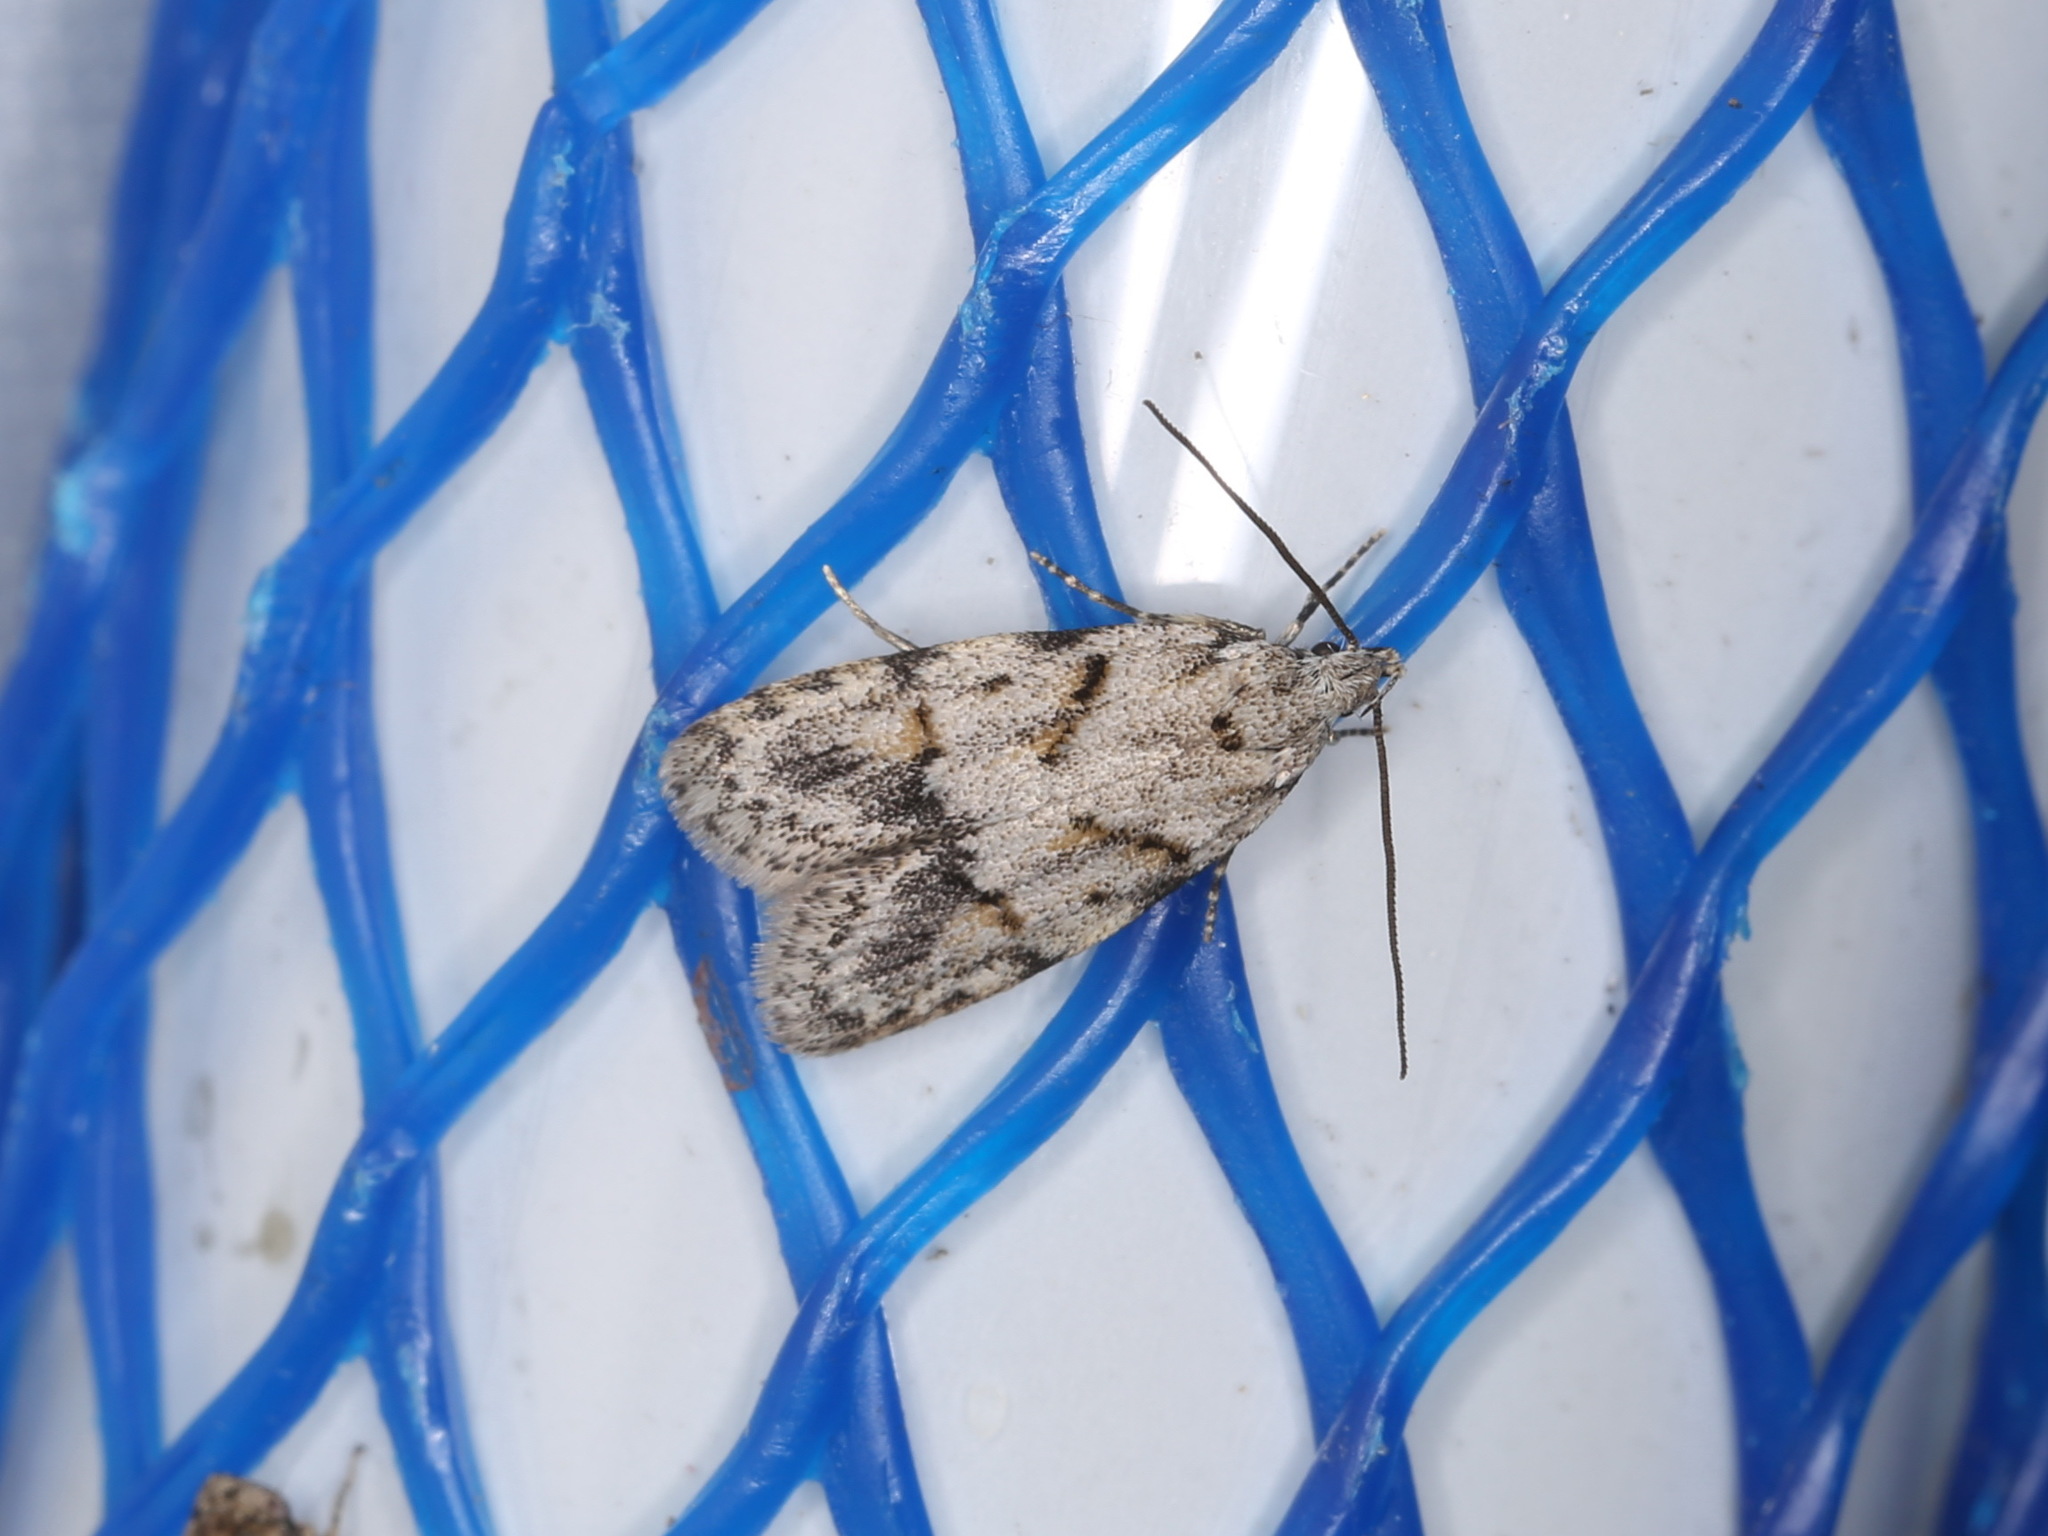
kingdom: Animalia
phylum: Arthropoda
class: Insecta
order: Lepidoptera
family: Autostichidae
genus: Symmoca
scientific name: Symmoca signatella
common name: Dockland obscure
